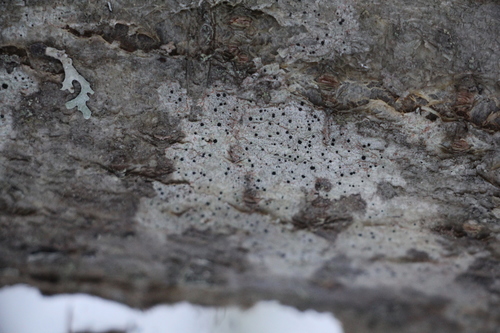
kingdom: Fungi
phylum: Ascomycota
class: Arthoniomycetes
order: Arthoniales
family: Arthoniaceae
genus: Arthonia
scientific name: Arthonia
